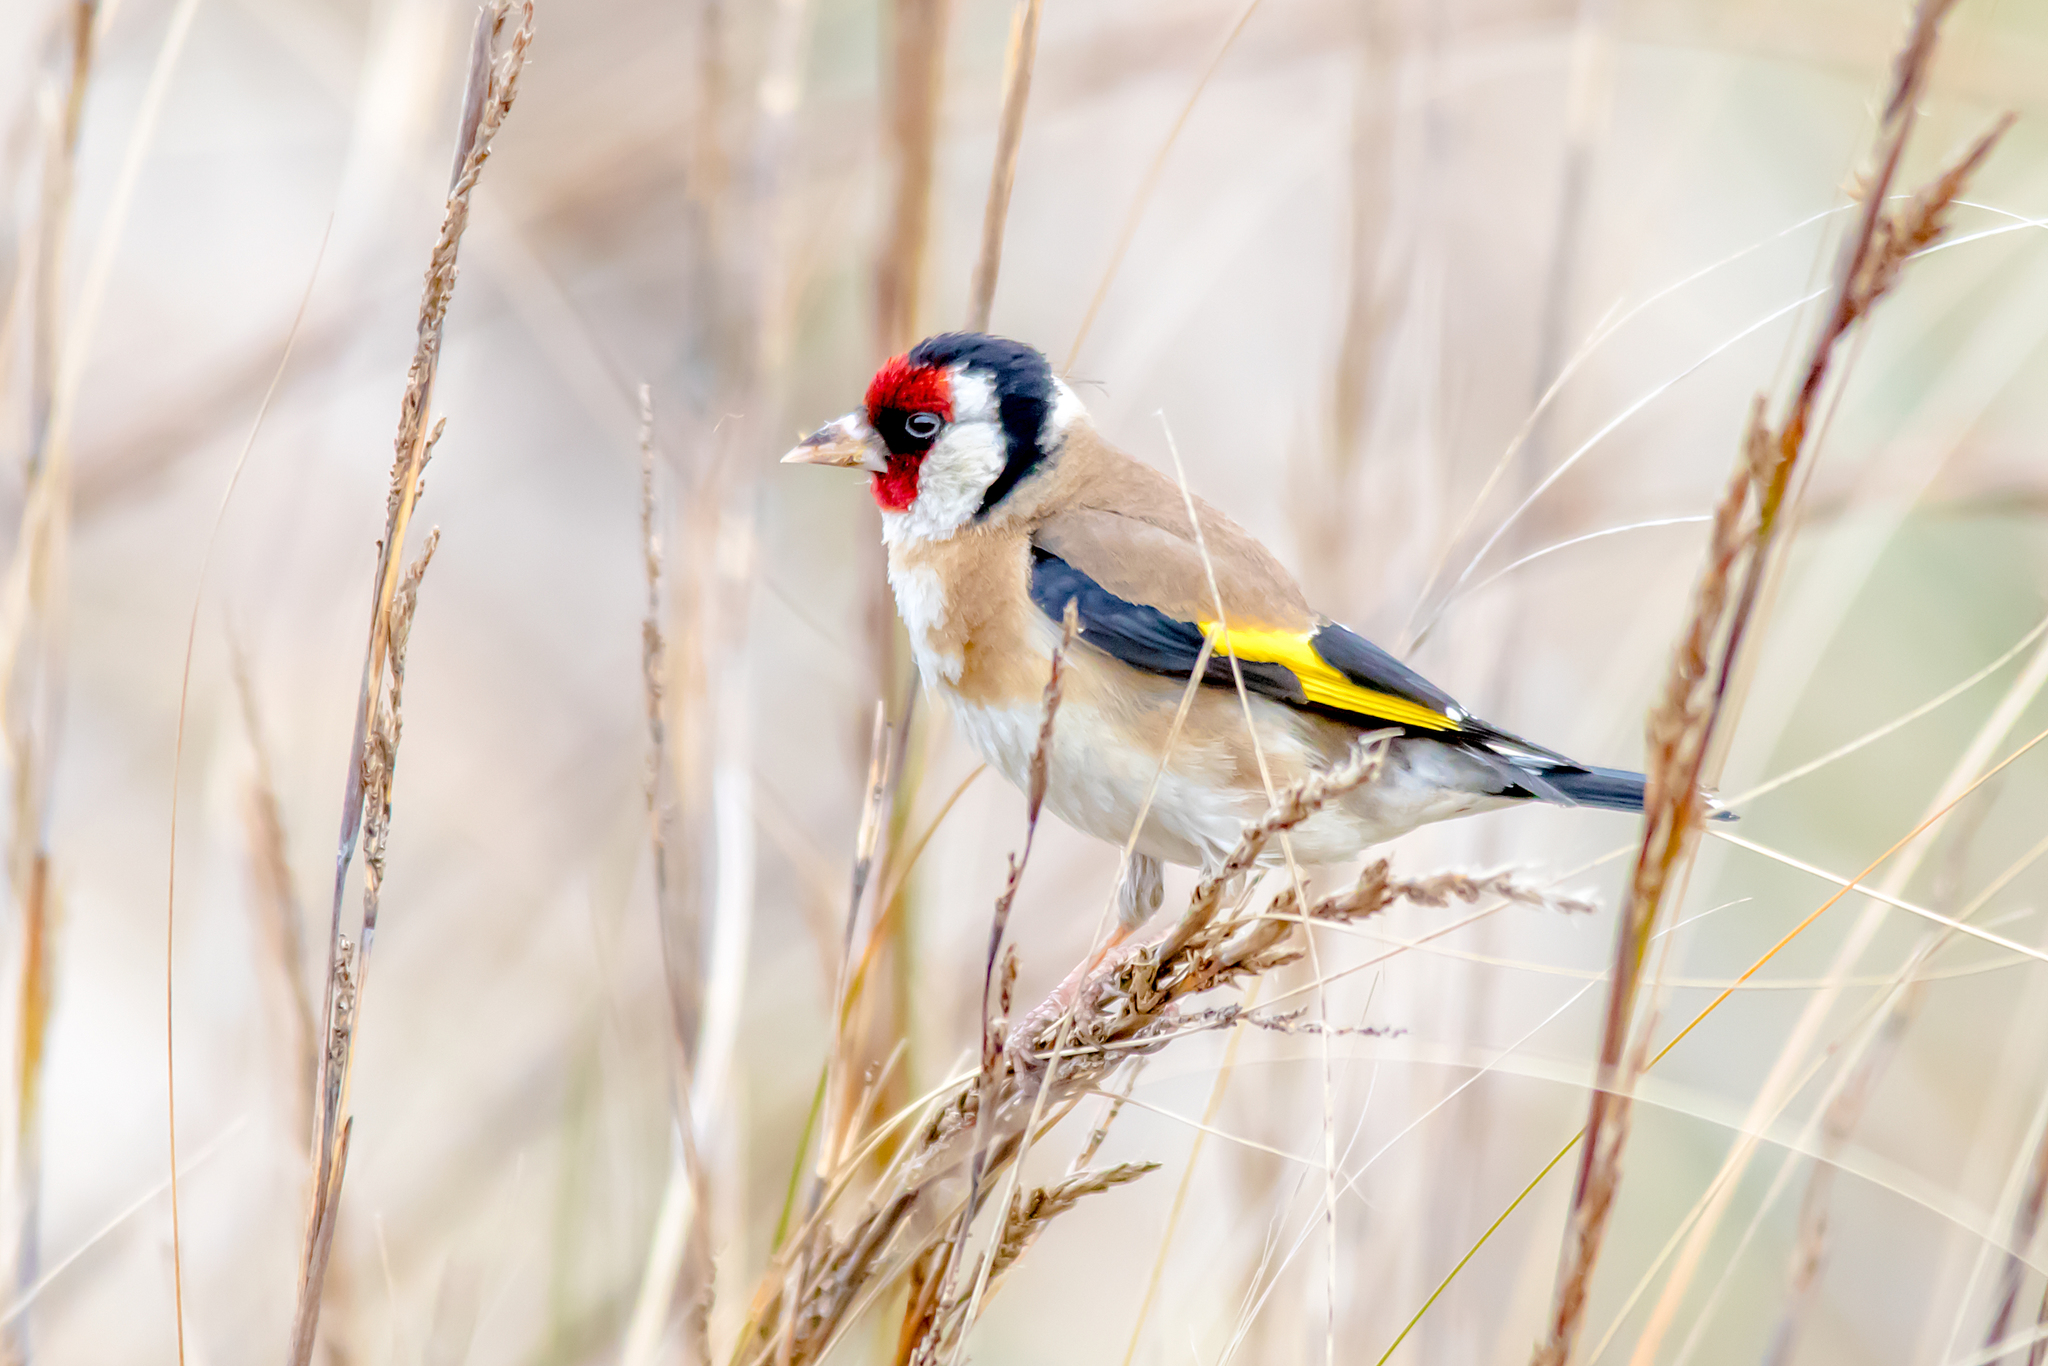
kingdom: Animalia
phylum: Chordata
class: Aves
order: Passeriformes
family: Fringillidae
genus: Carduelis
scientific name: Carduelis carduelis
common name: European goldfinch
